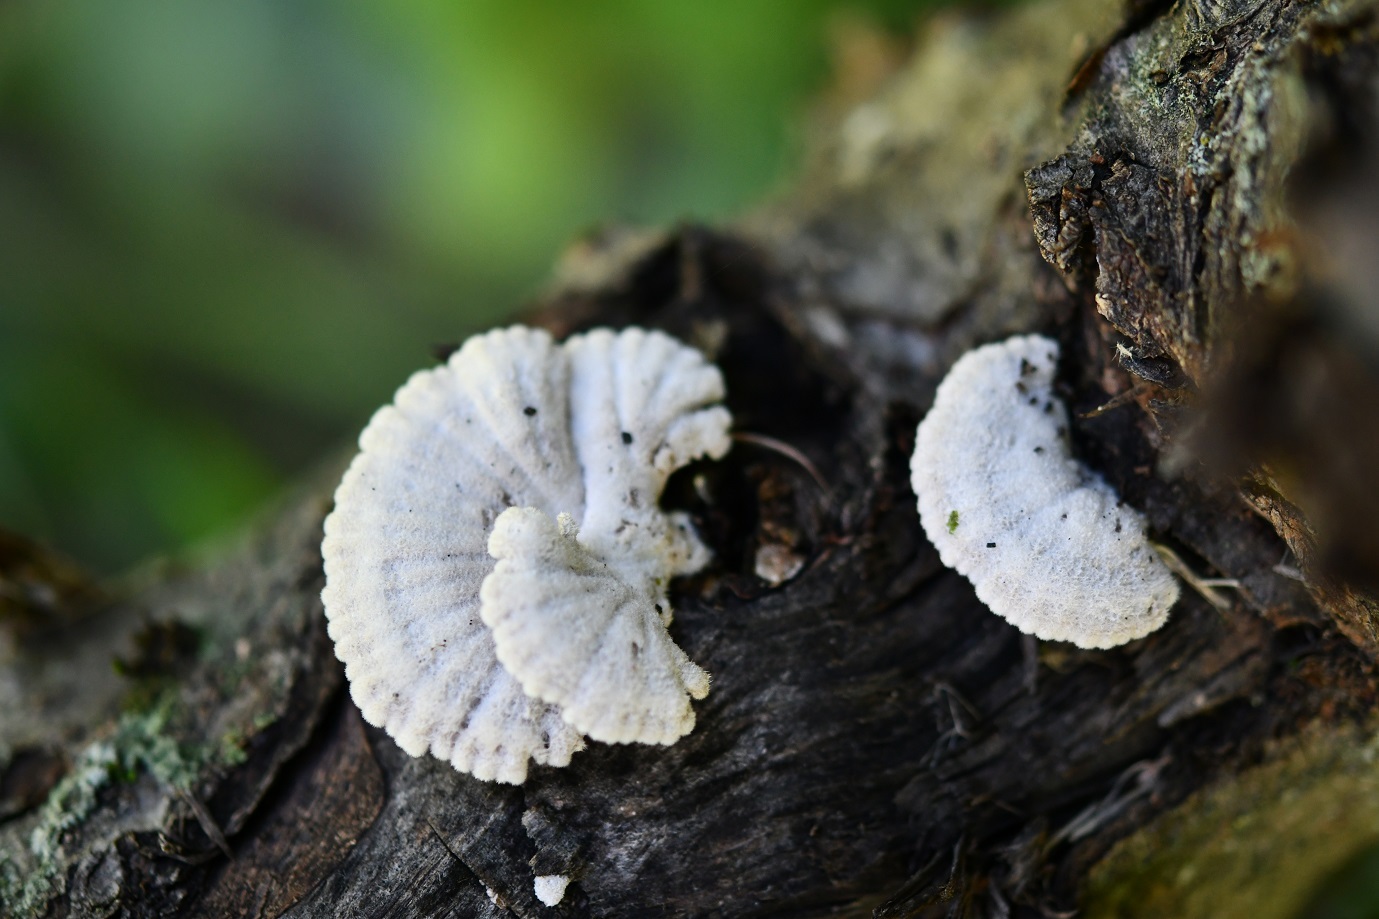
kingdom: Fungi
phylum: Basidiomycota
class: Agaricomycetes
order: Agaricales
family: Schizophyllaceae
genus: Schizophyllum
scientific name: Schizophyllum commune
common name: Common porecrust
